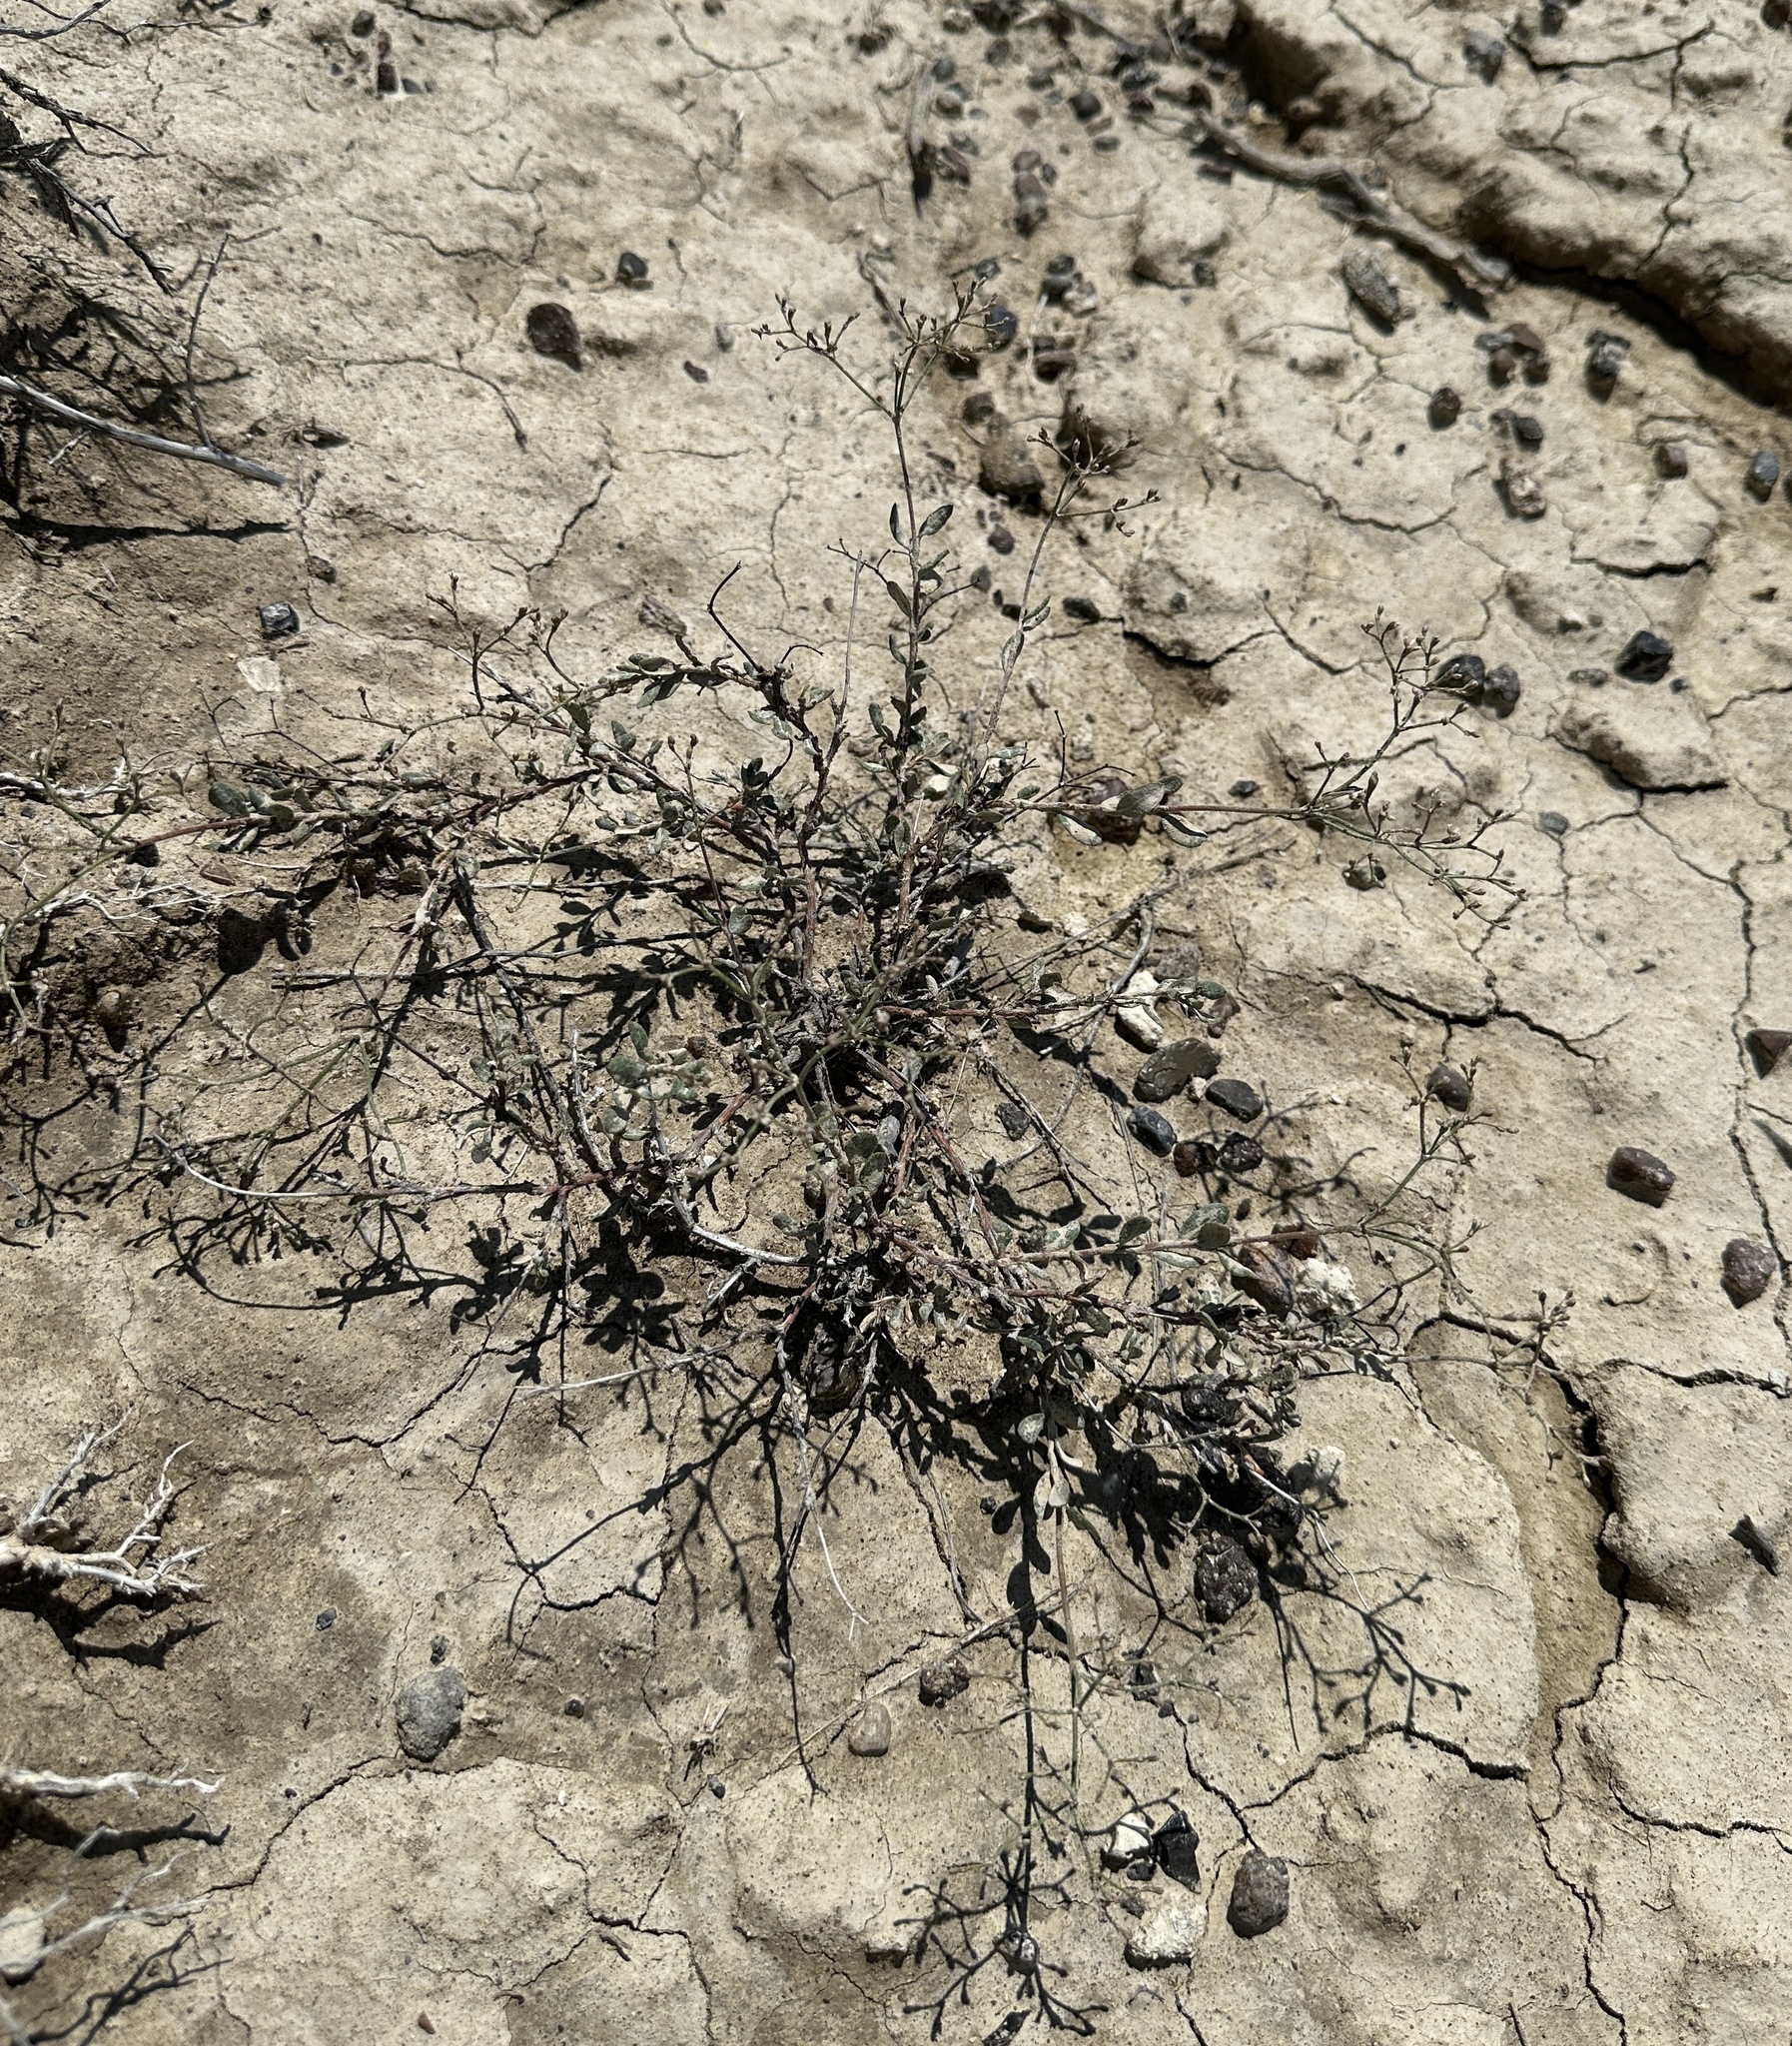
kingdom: Plantae
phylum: Tracheophyta
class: Magnoliopsida
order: Caryophyllales
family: Polygonaceae
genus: Eriogonum
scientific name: Eriogonum microtheca
